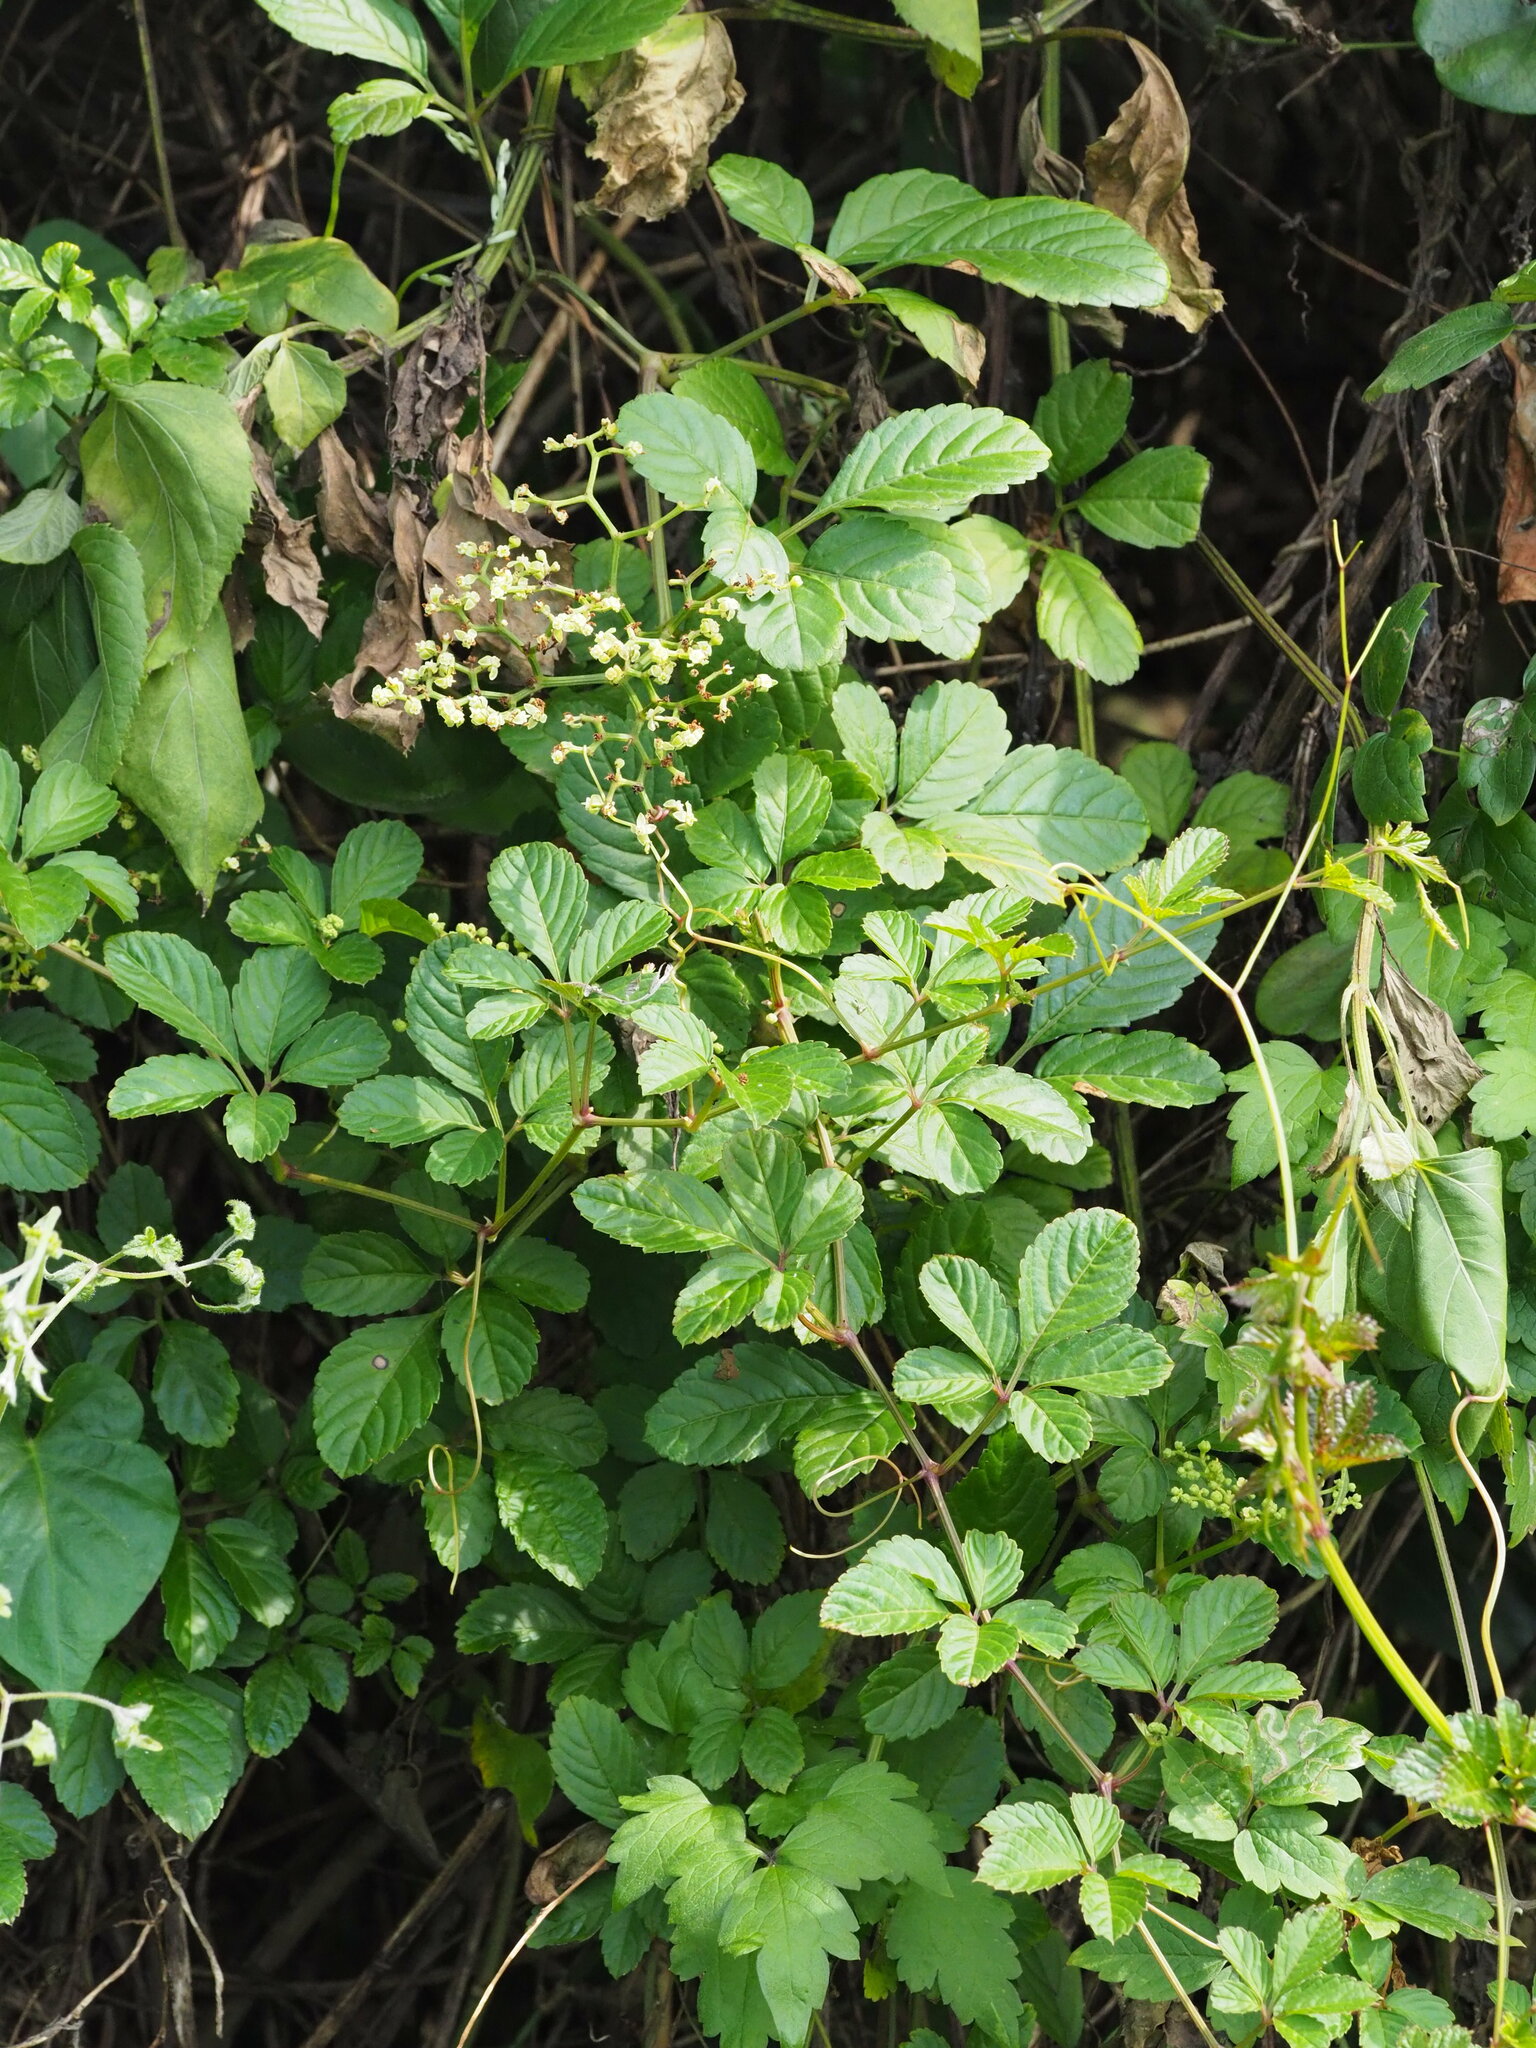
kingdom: Plantae
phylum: Tracheophyta
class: Magnoliopsida
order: Vitales
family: Vitaceae
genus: Causonis
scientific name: Causonis japonica
